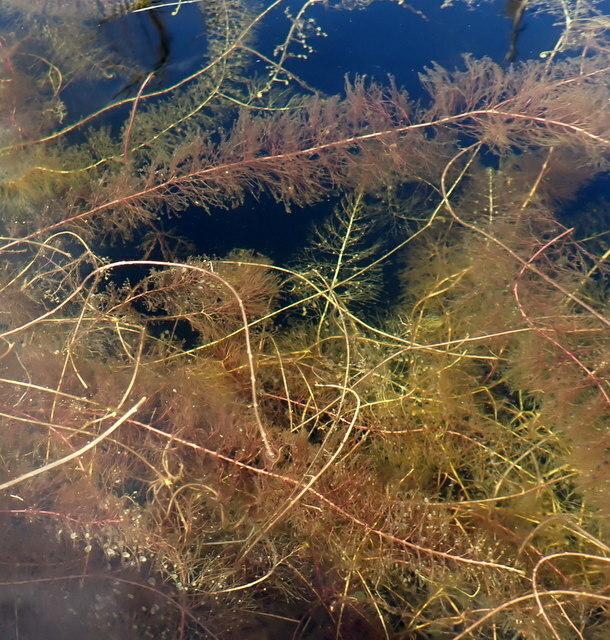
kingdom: Plantae
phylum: Tracheophyta
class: Magnoliopsida
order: Lamiales
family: Lentibulariaceae
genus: Utricularia
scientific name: Utricularia floridana
